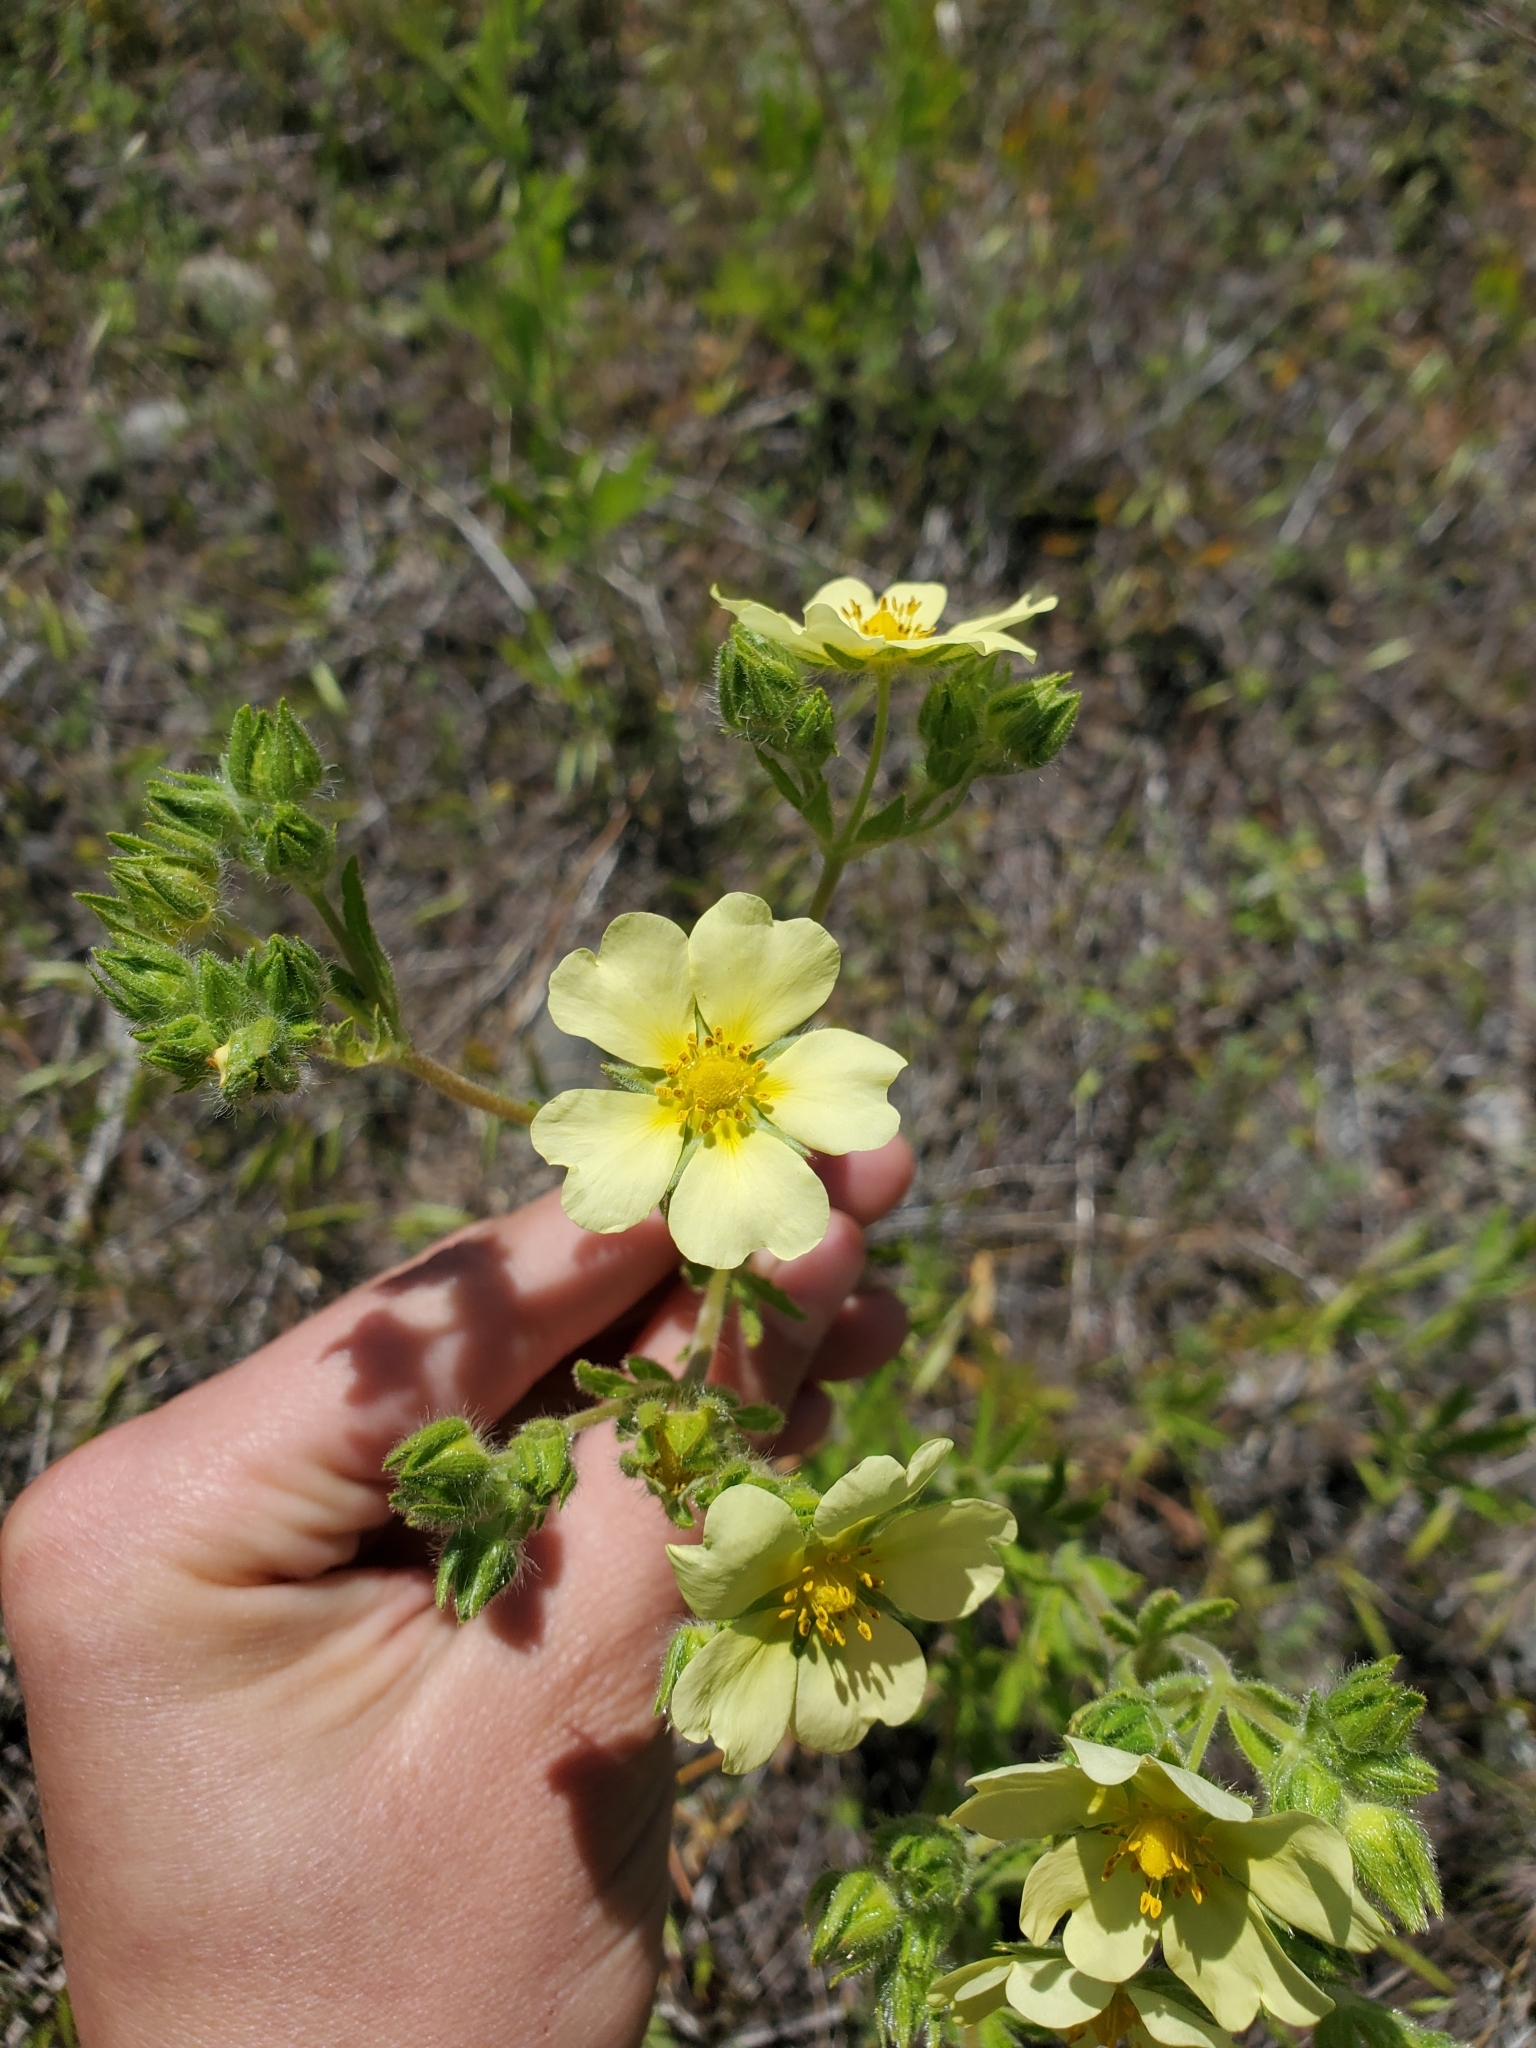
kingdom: Plantae
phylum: Tracheophyta
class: Magnoliopsida
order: Rosales
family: Rosaceae
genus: Potentilla
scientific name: Potentilla recta
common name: Sulphur cinquefoil
